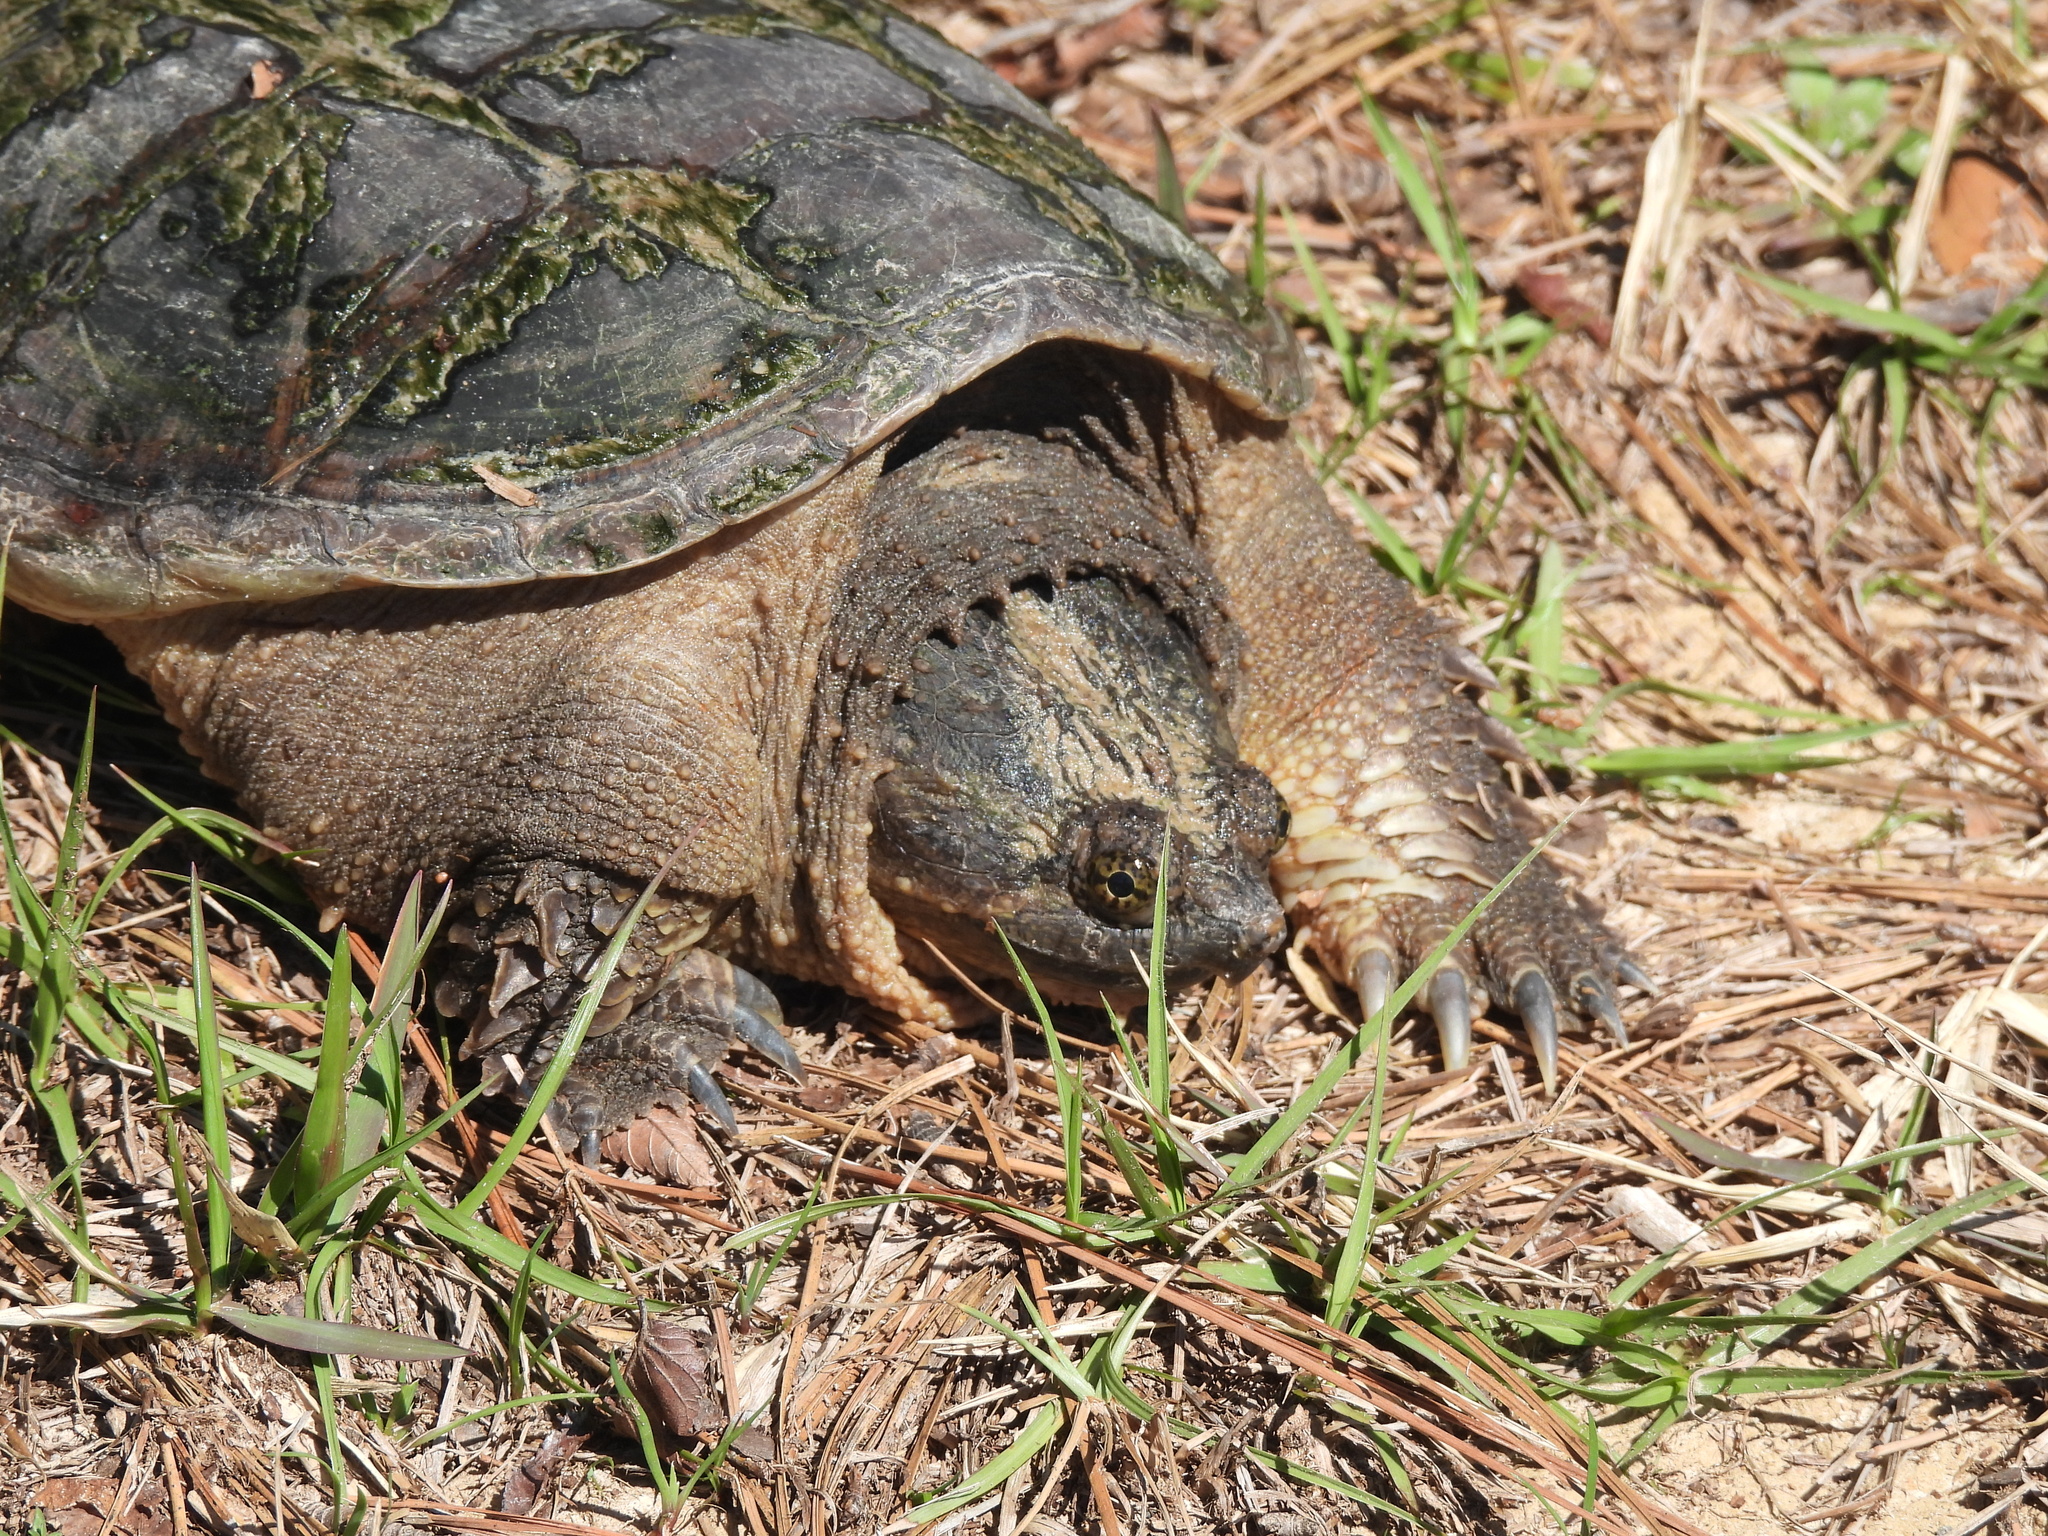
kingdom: Animalia
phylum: Chordata
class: Testudines
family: Chelydridae
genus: Chelydra
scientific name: Chelydra serpentina
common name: Common snapping turtle
